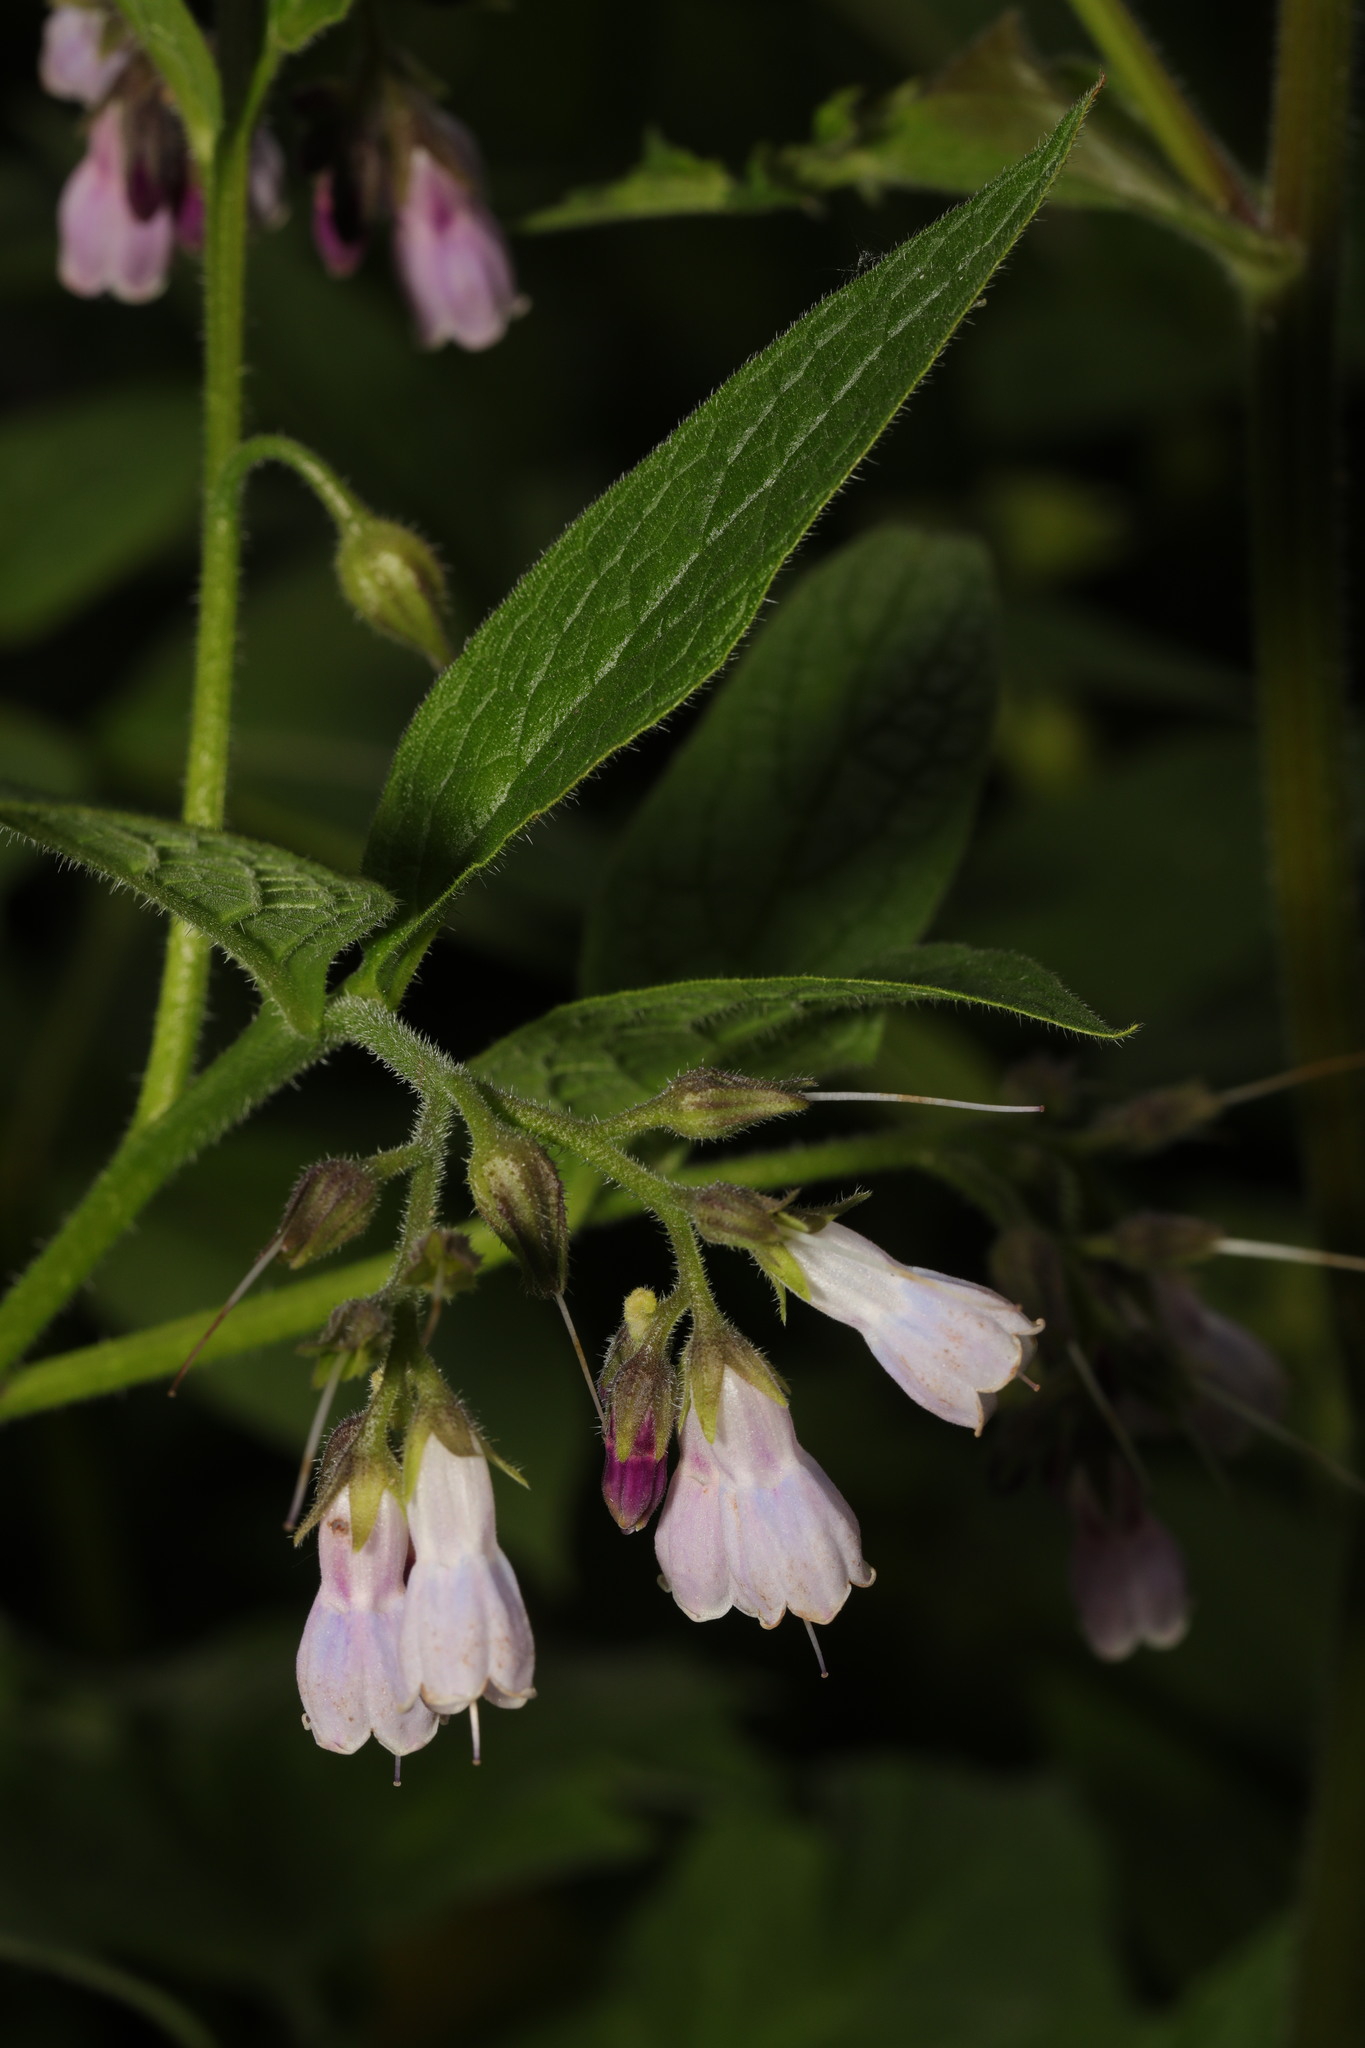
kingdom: Plantae
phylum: Tracheophyta
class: Magnoliopsida
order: Boraginales
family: Boraginaceae
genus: Symphytum
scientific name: Symphytum officinale
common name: Common comfrey
